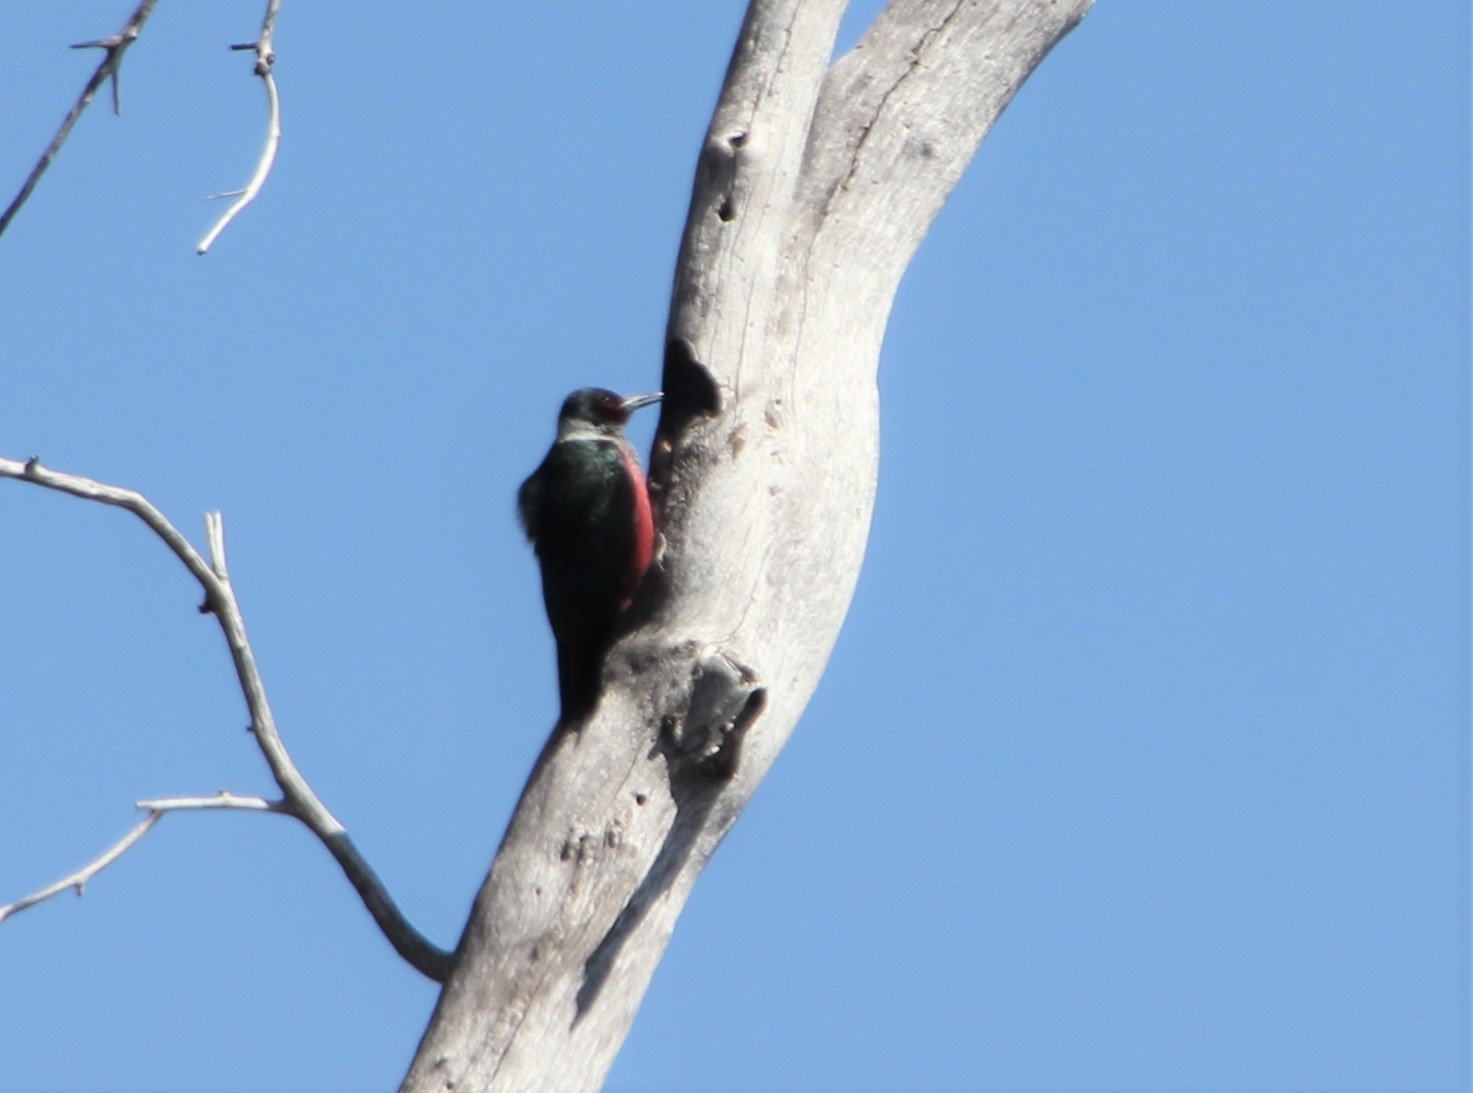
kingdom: Animalia
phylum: Chordata
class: Aves
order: Piciformes
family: Picidae
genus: Melanerpes
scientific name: Melanerpes lewis
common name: Lewis's woodpecker
